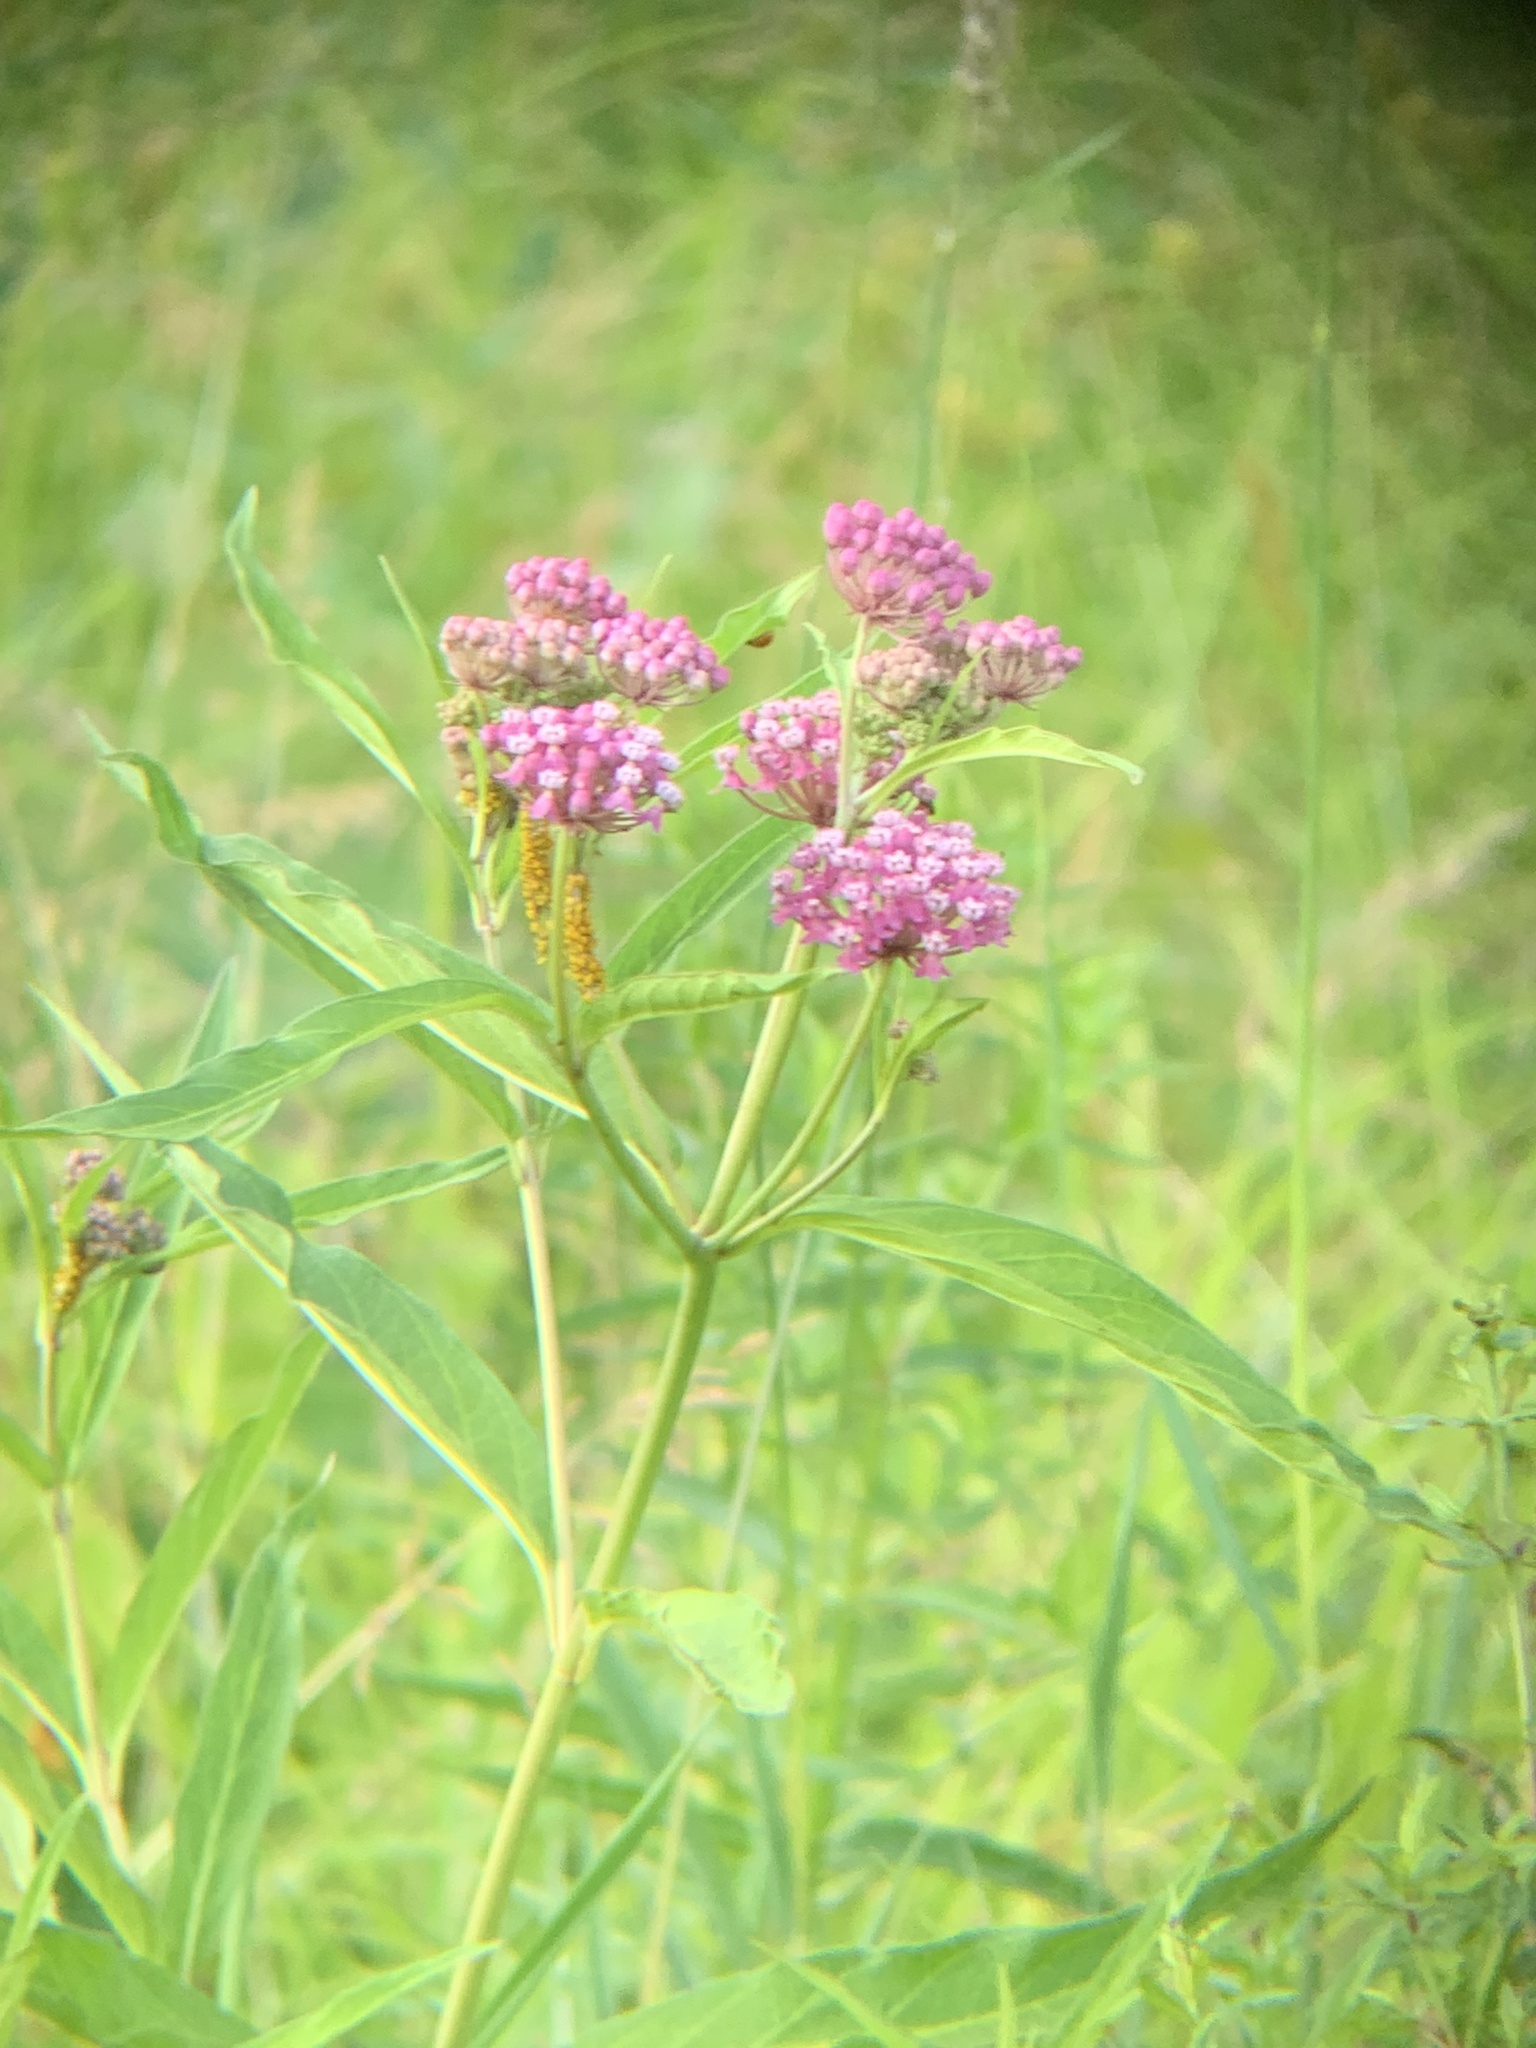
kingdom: Plantae
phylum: Tracheophyta
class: Magnoliopsida
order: Gentianales
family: Apocynaceae
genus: Asclepias
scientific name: Asclepias incarnata
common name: Swamp milkweed
